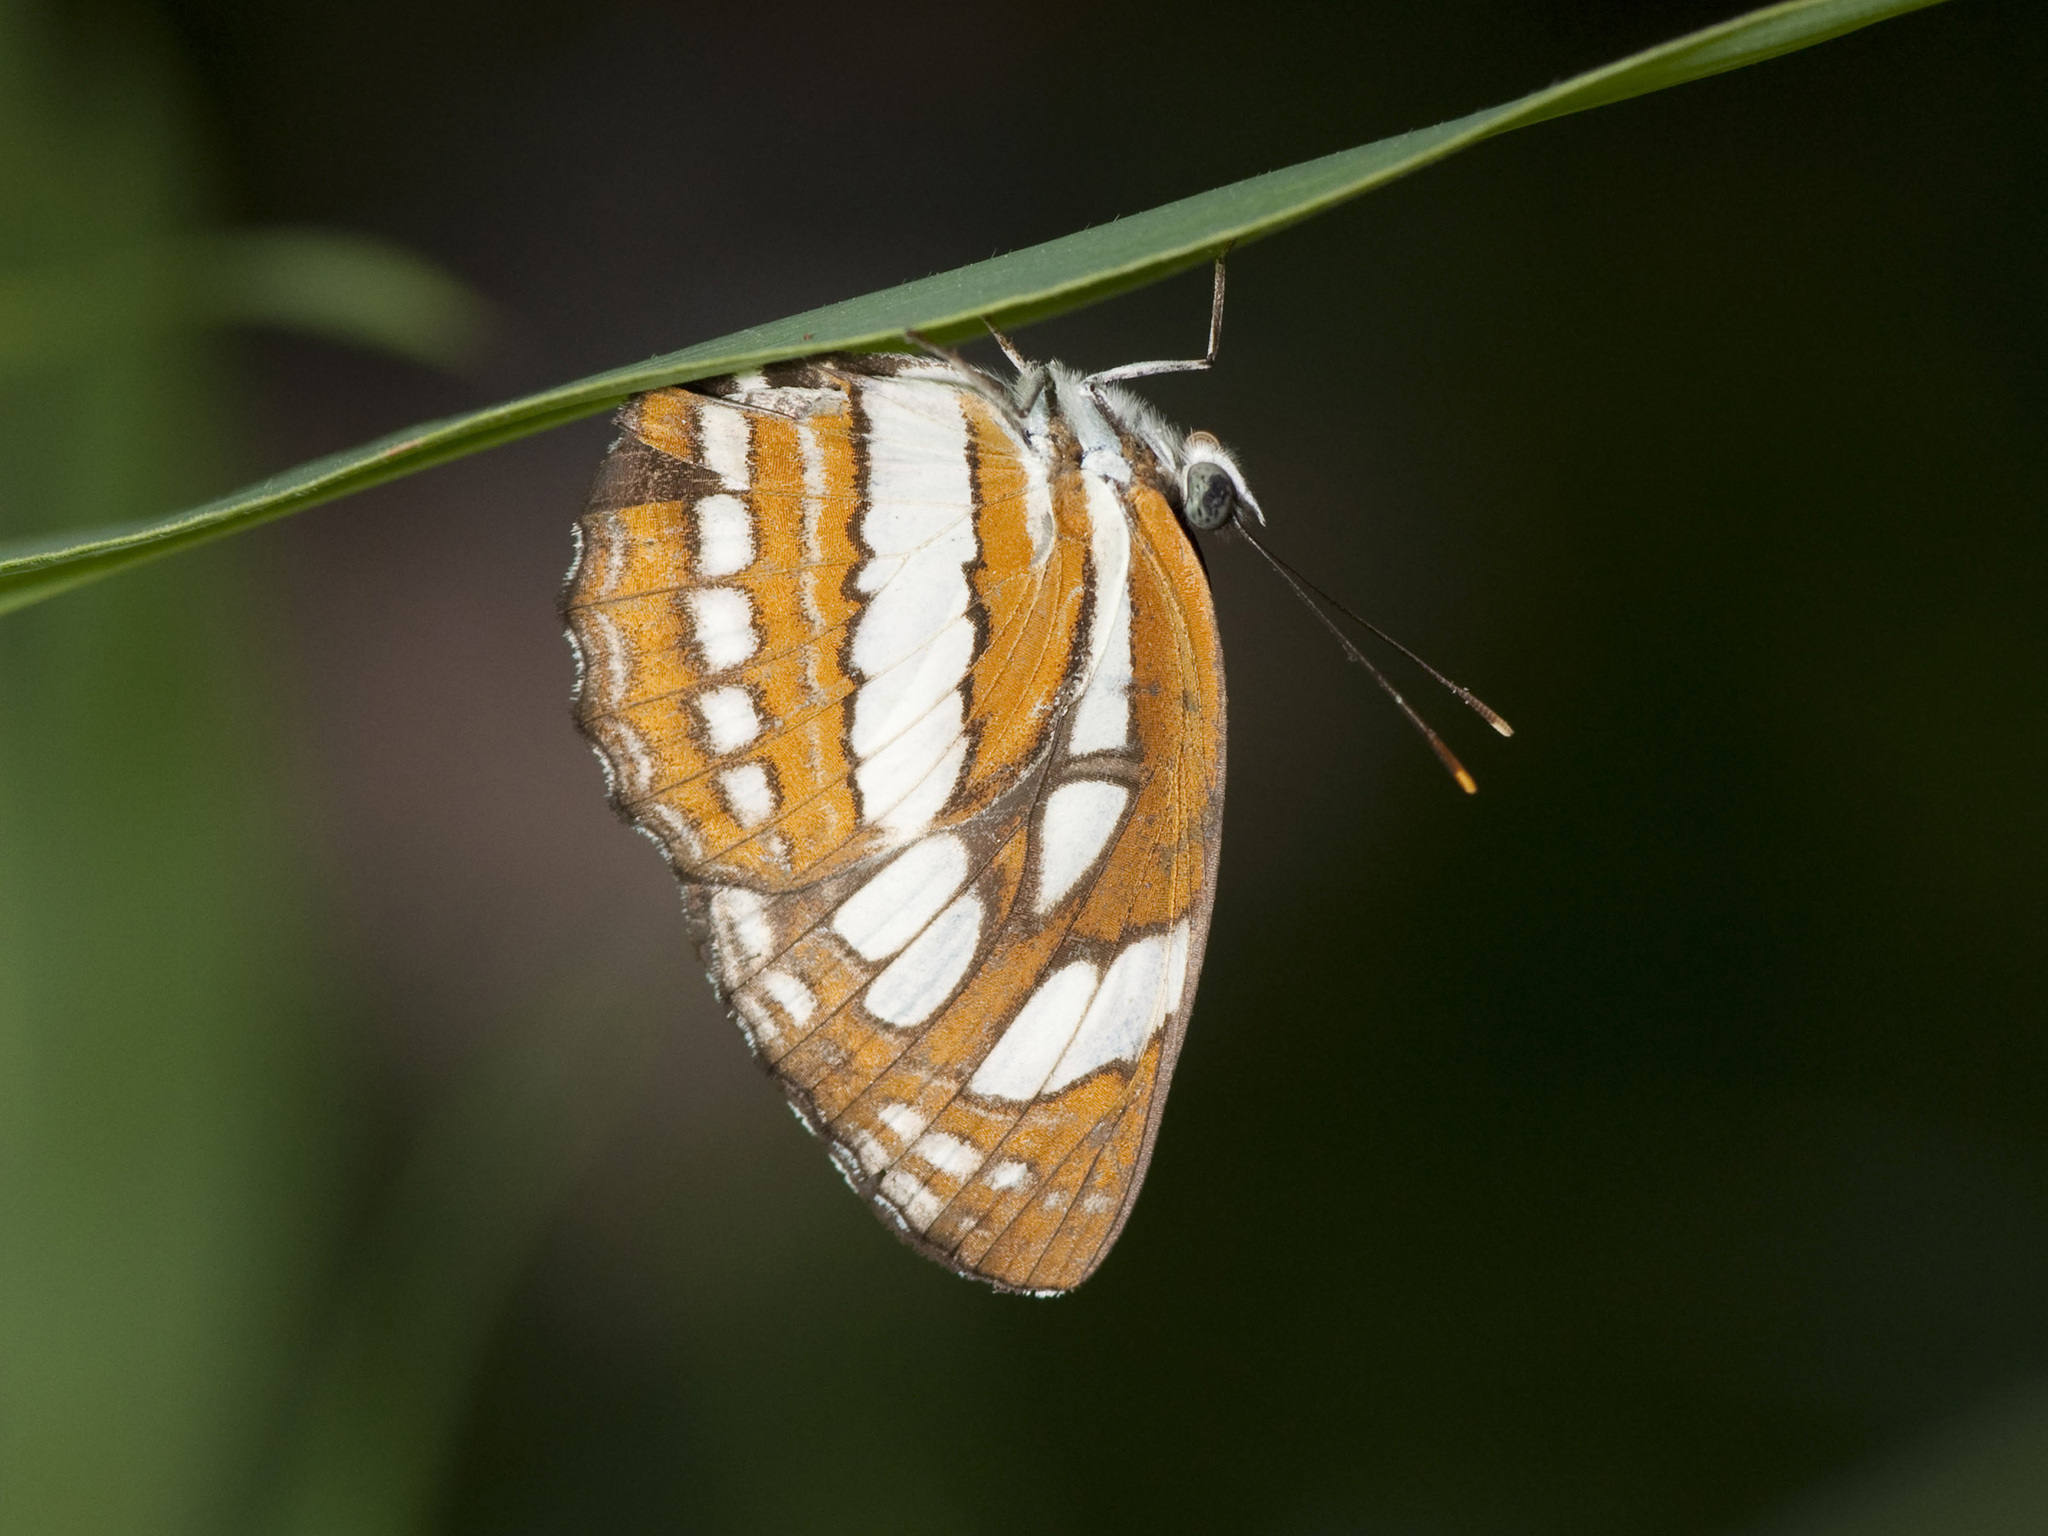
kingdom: Animalia
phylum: Arthropoda
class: Insecta
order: Lepidoptera
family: Nymphalidae
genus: Neptis
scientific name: Neptis hylas
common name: Common sailer
